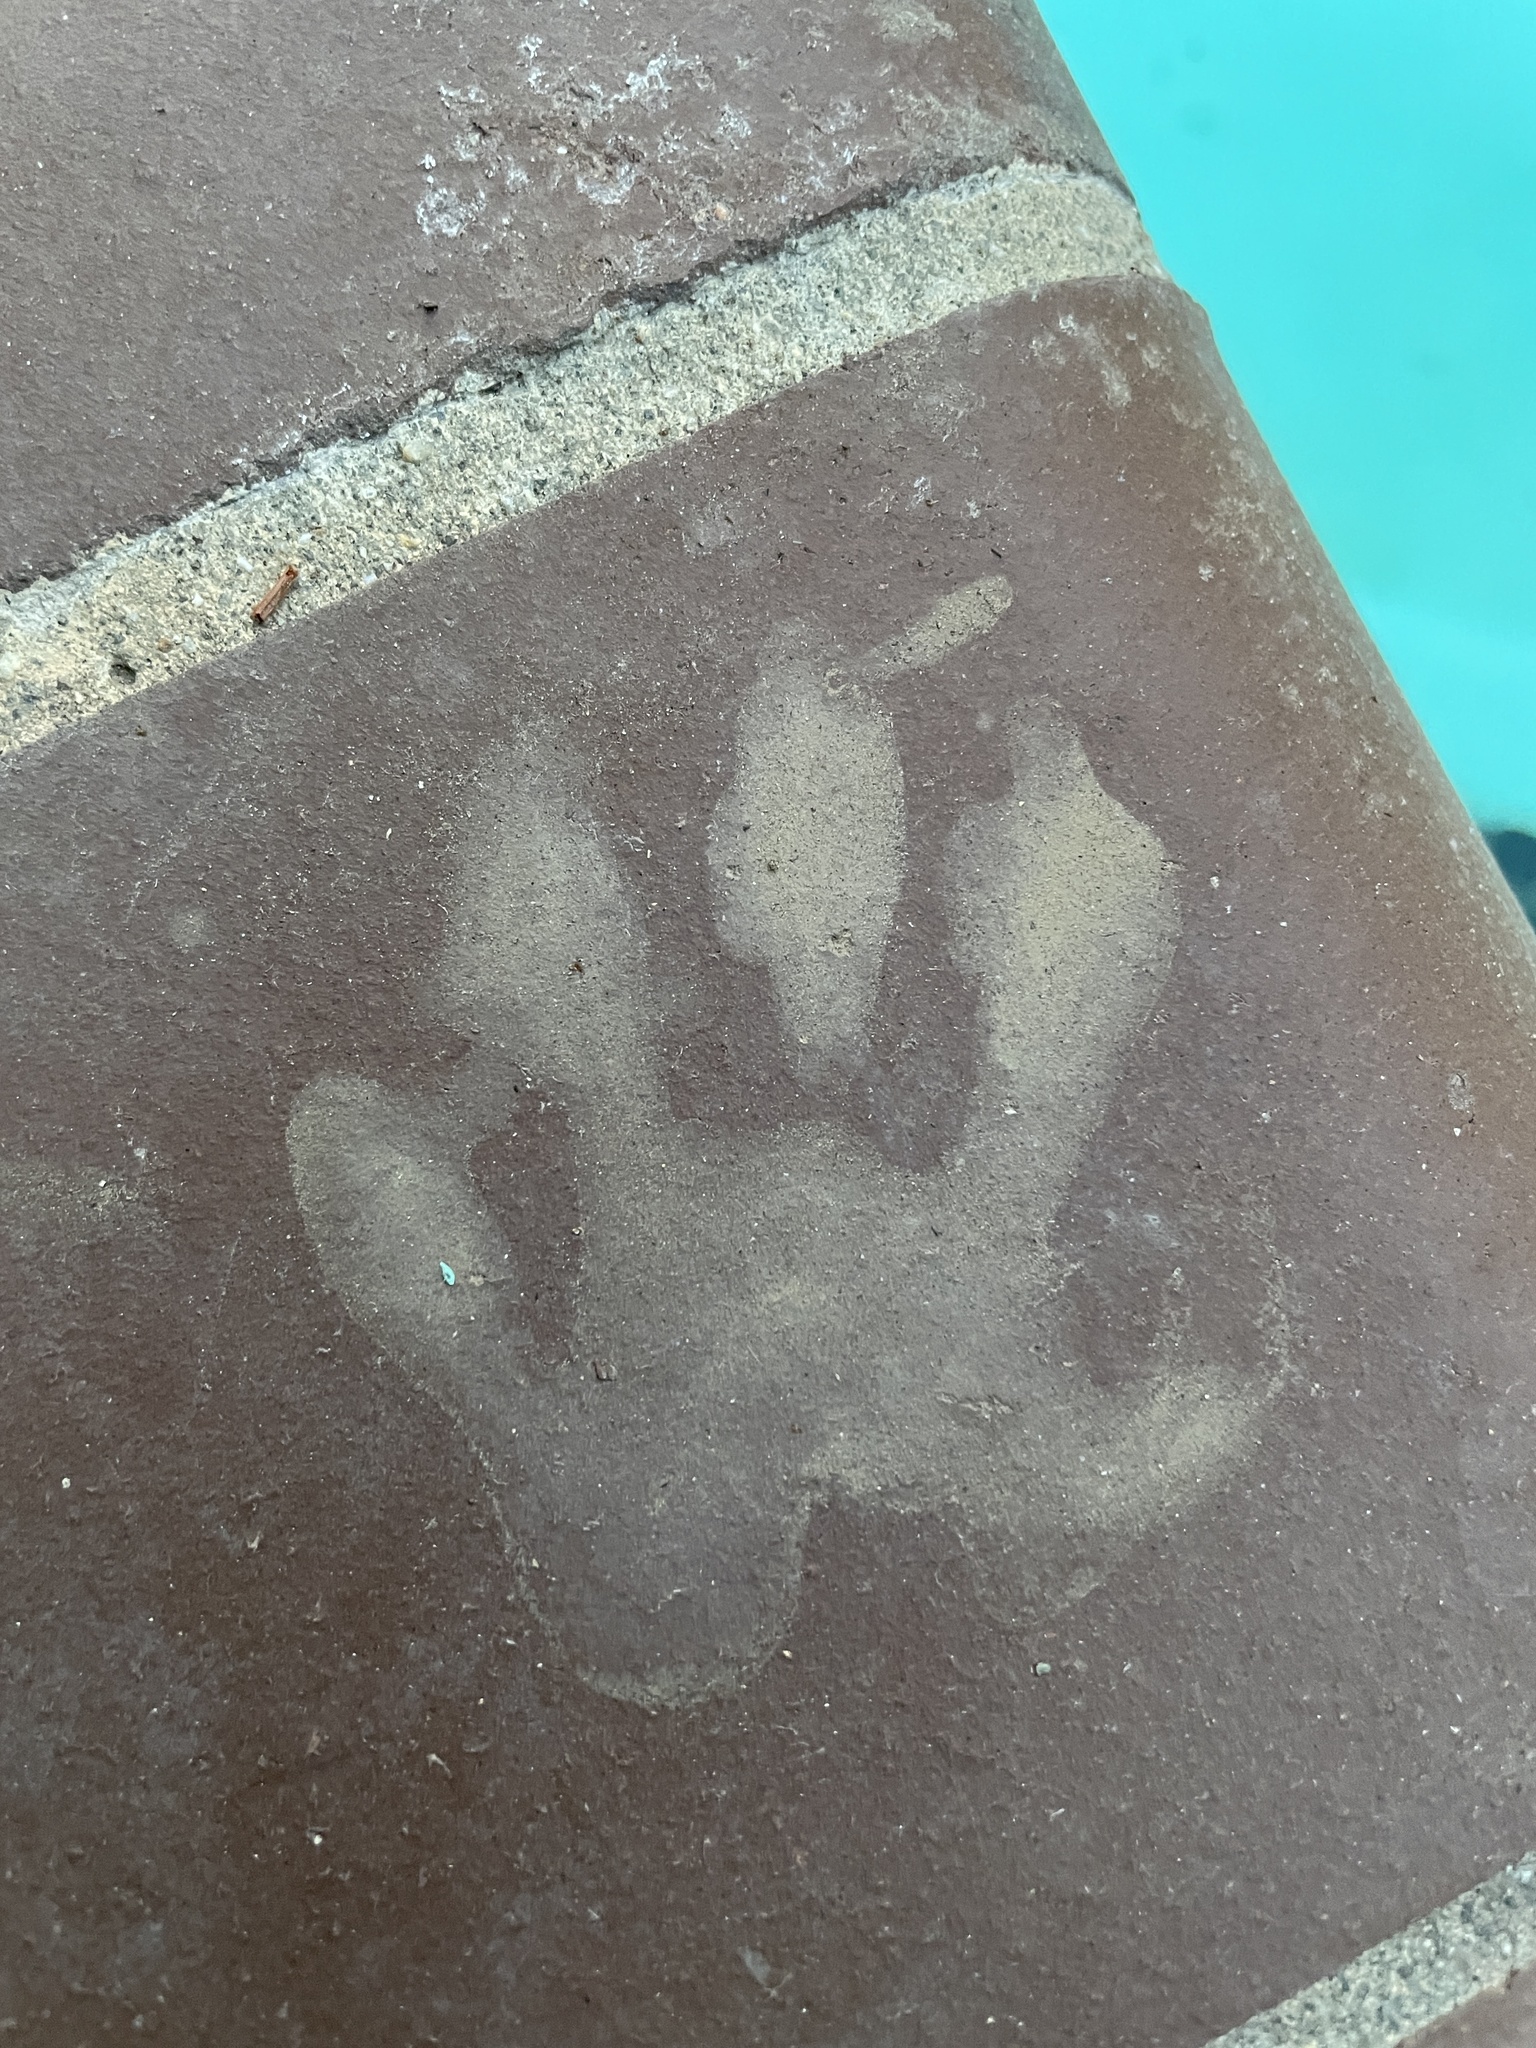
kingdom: Animalia
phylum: Chordata
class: Mammalia
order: Carnivora
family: Procyonidae
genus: Procyon
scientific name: Procyon lotor
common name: Raccoon
